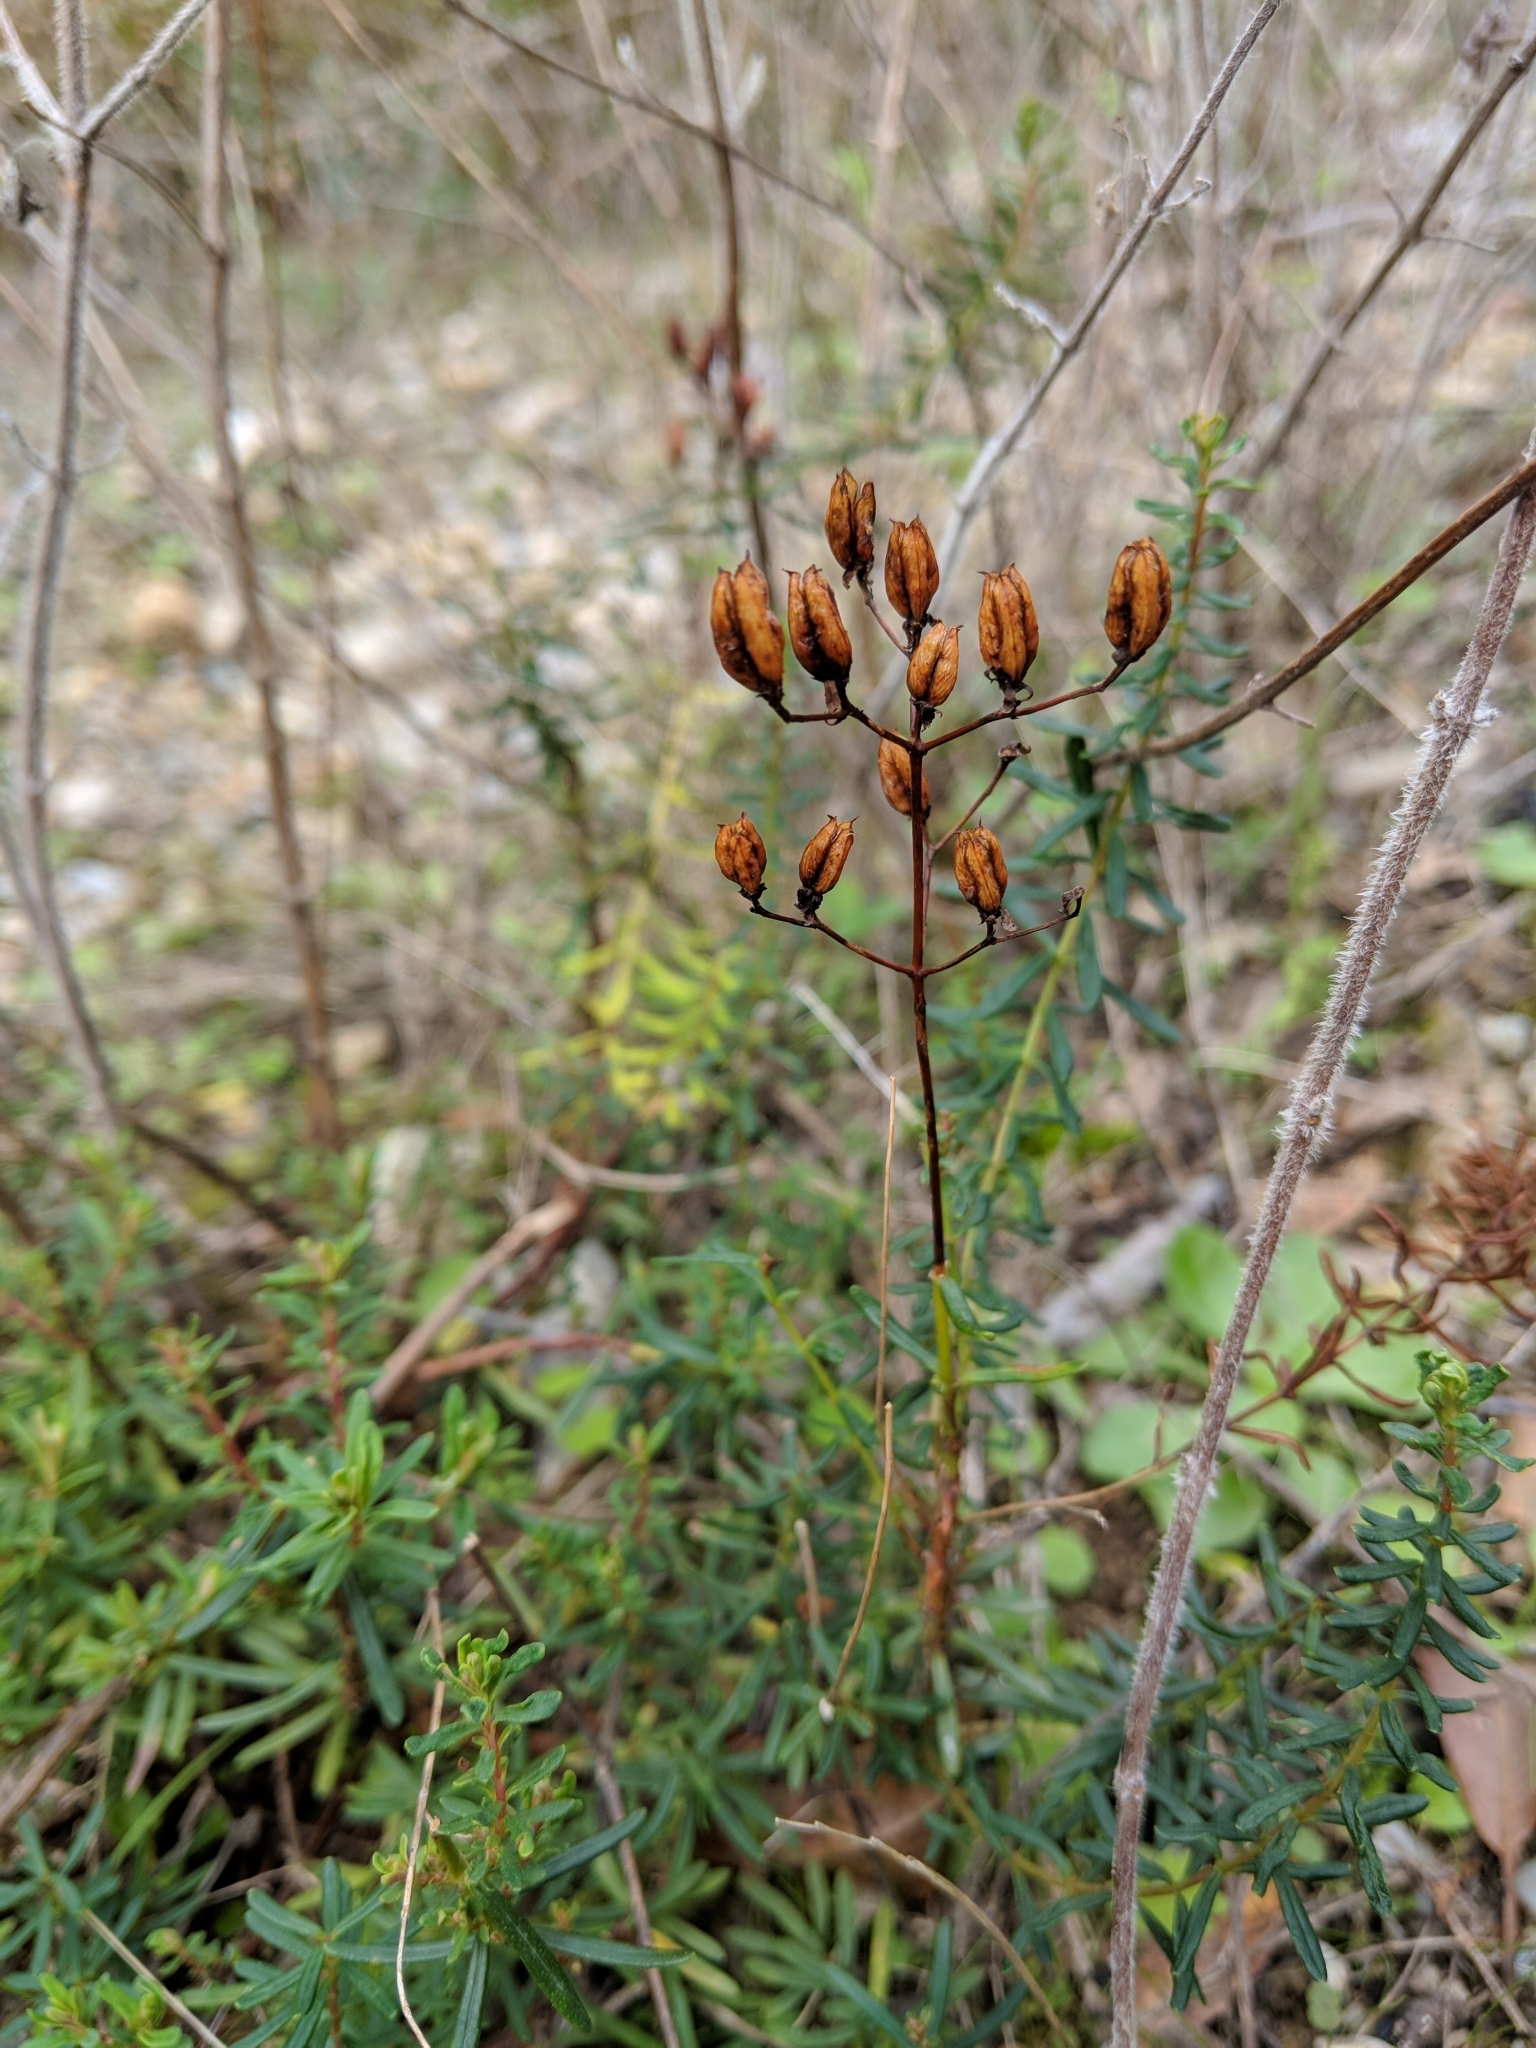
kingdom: Plantae
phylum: Tracheophyta
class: Magnoliopsida
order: Malpighiales
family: Hypericaceae
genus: Hypericum
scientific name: Hypericum empetrifolium
